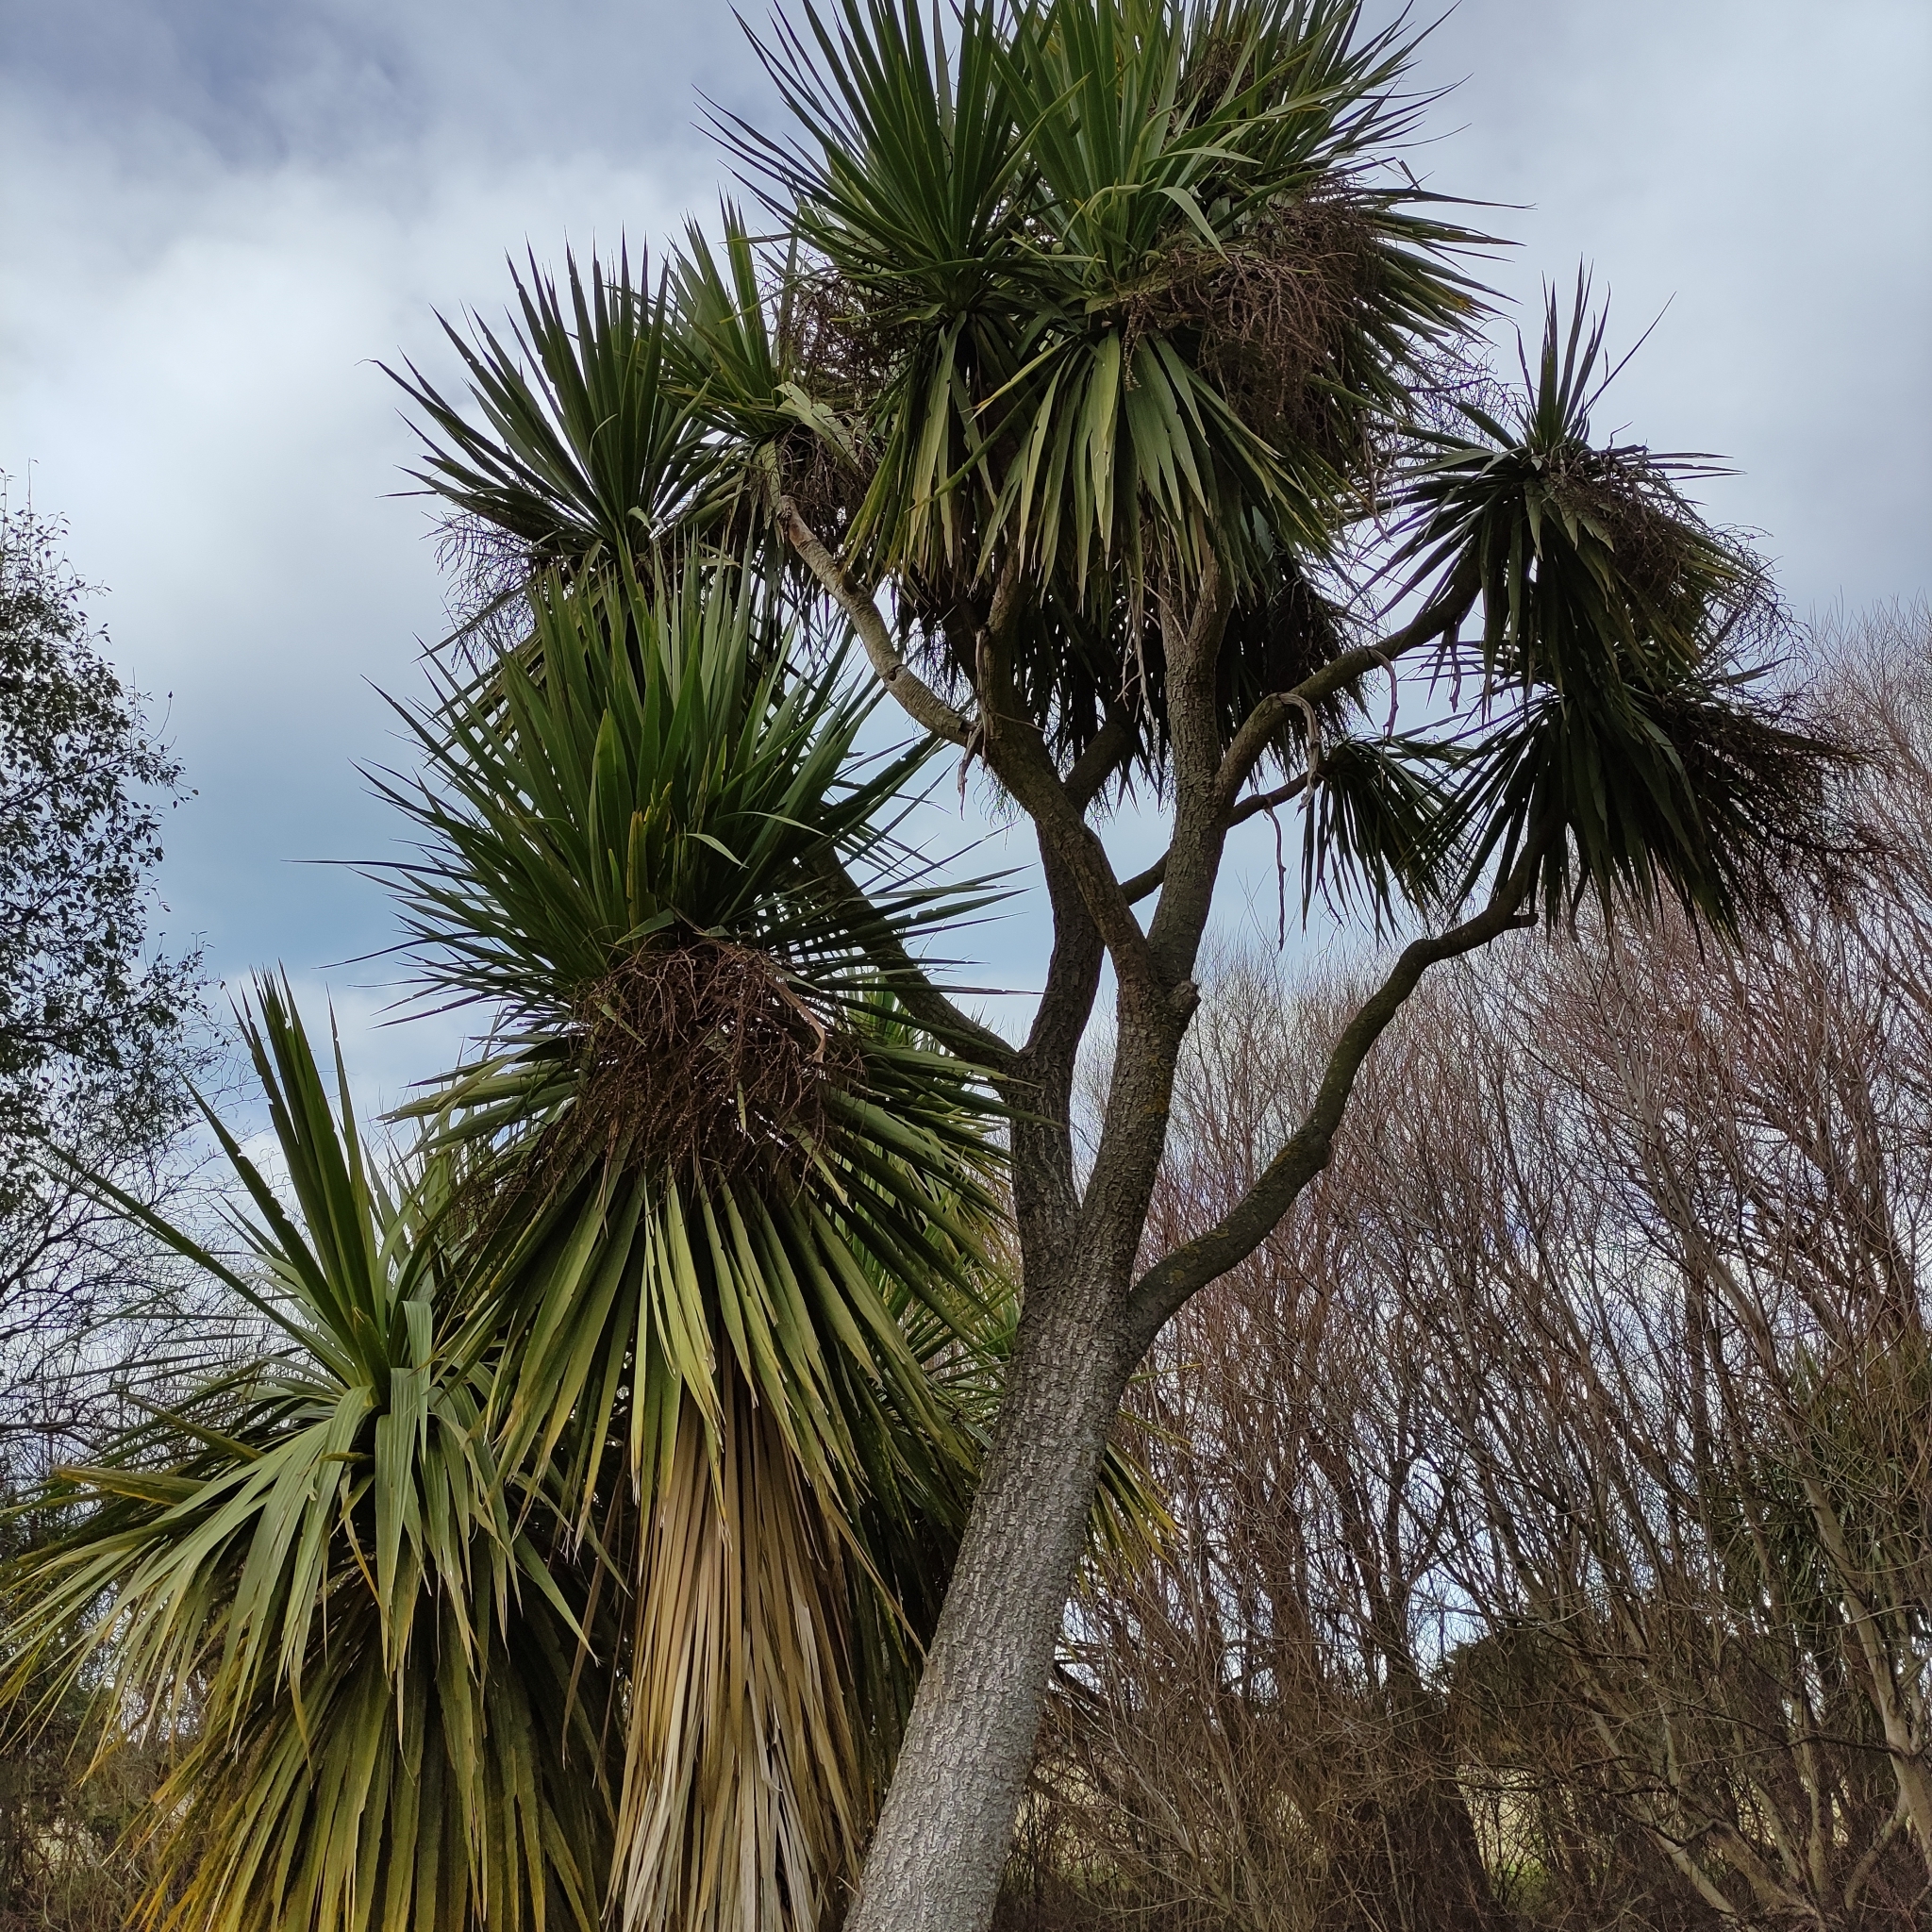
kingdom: Plantae
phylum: Tracheophyta
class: Liliopsida
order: Asparagales
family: Asparagaceae
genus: Cordyline
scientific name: Cordyline australis
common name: Cabbage-palm
